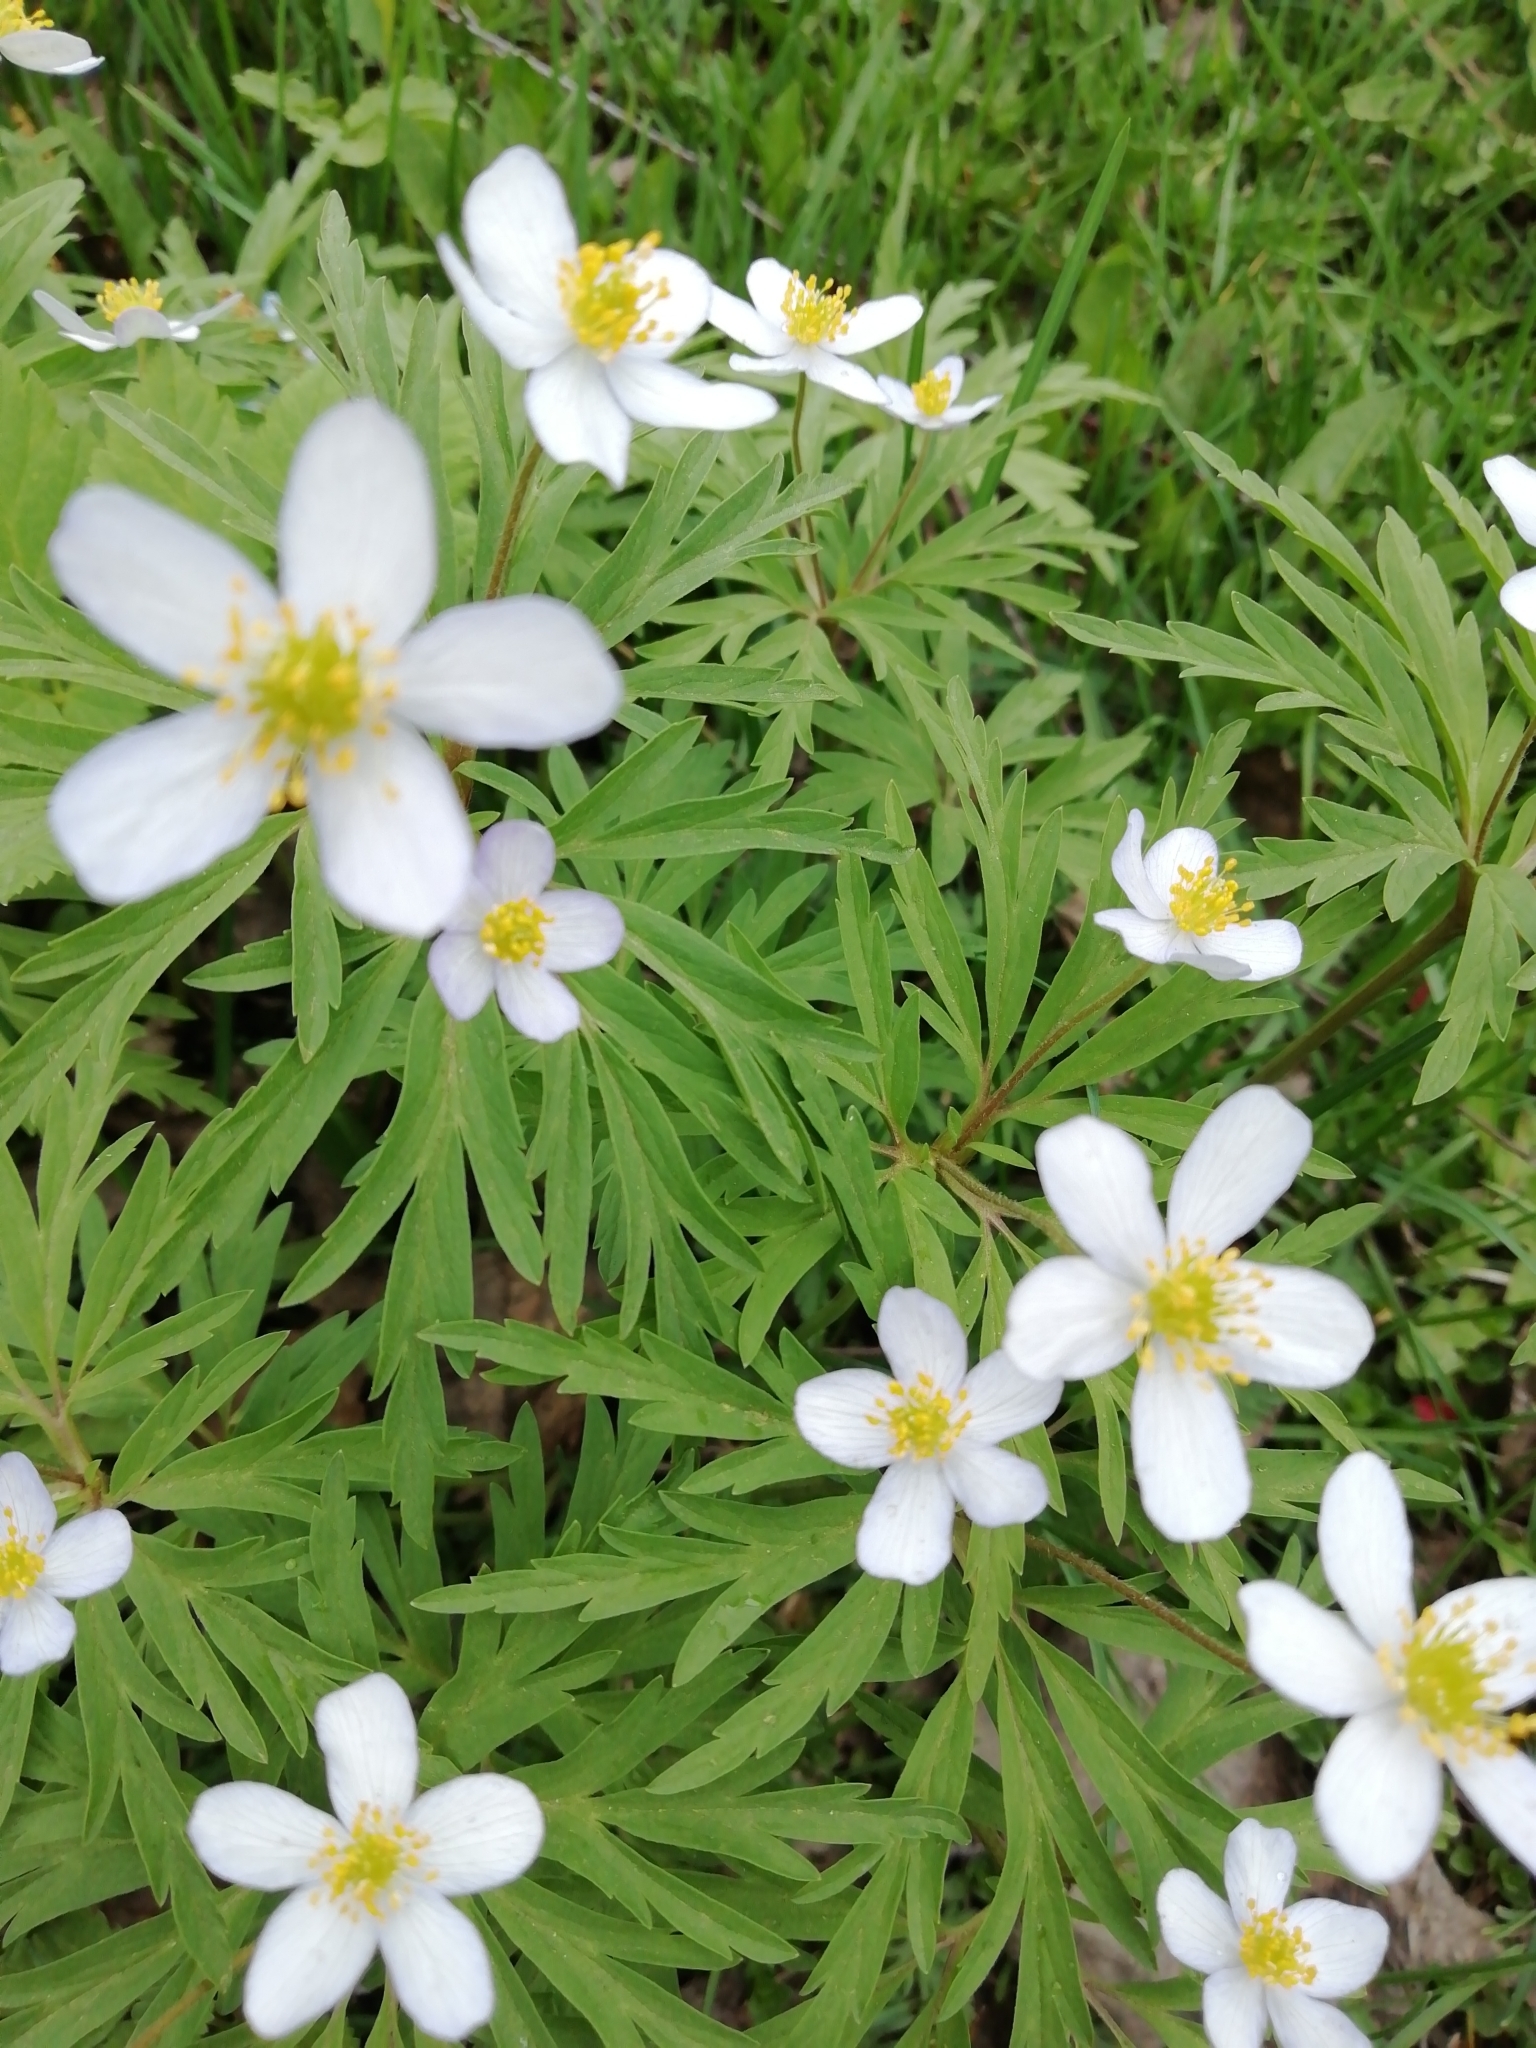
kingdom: Plantae
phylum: Tracheophyta
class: Magnoliopsida
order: Ranunculales
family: Ranunculaceae
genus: Anemone
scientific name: Anemone caerulea
